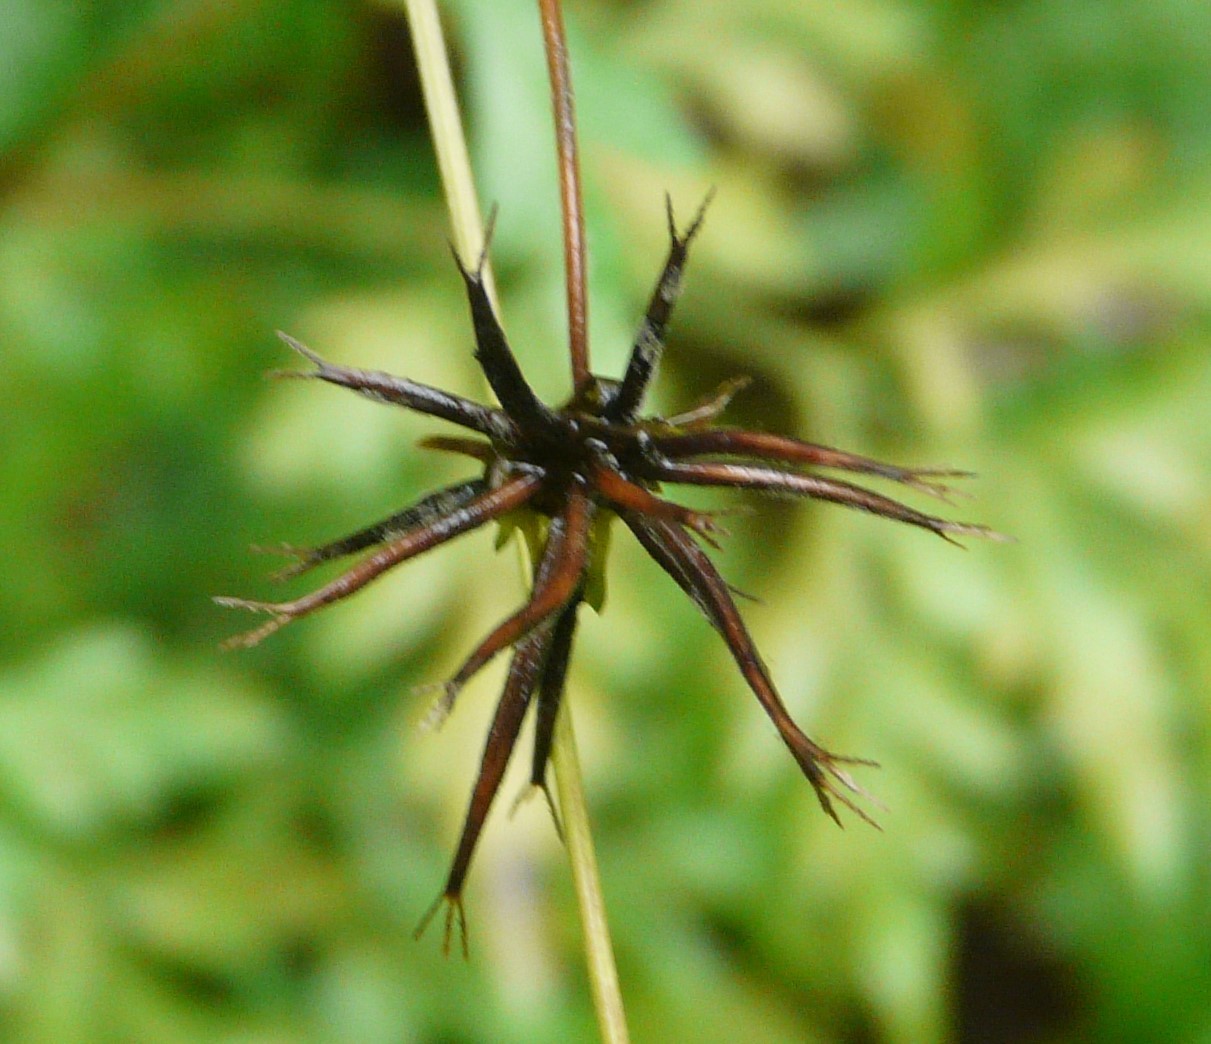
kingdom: Plantae
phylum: Tracheophyta
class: Magnoliopsida
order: Asterales
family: Asteraceae
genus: Bidens
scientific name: Bidens bipinnata
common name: Spanish-needles
